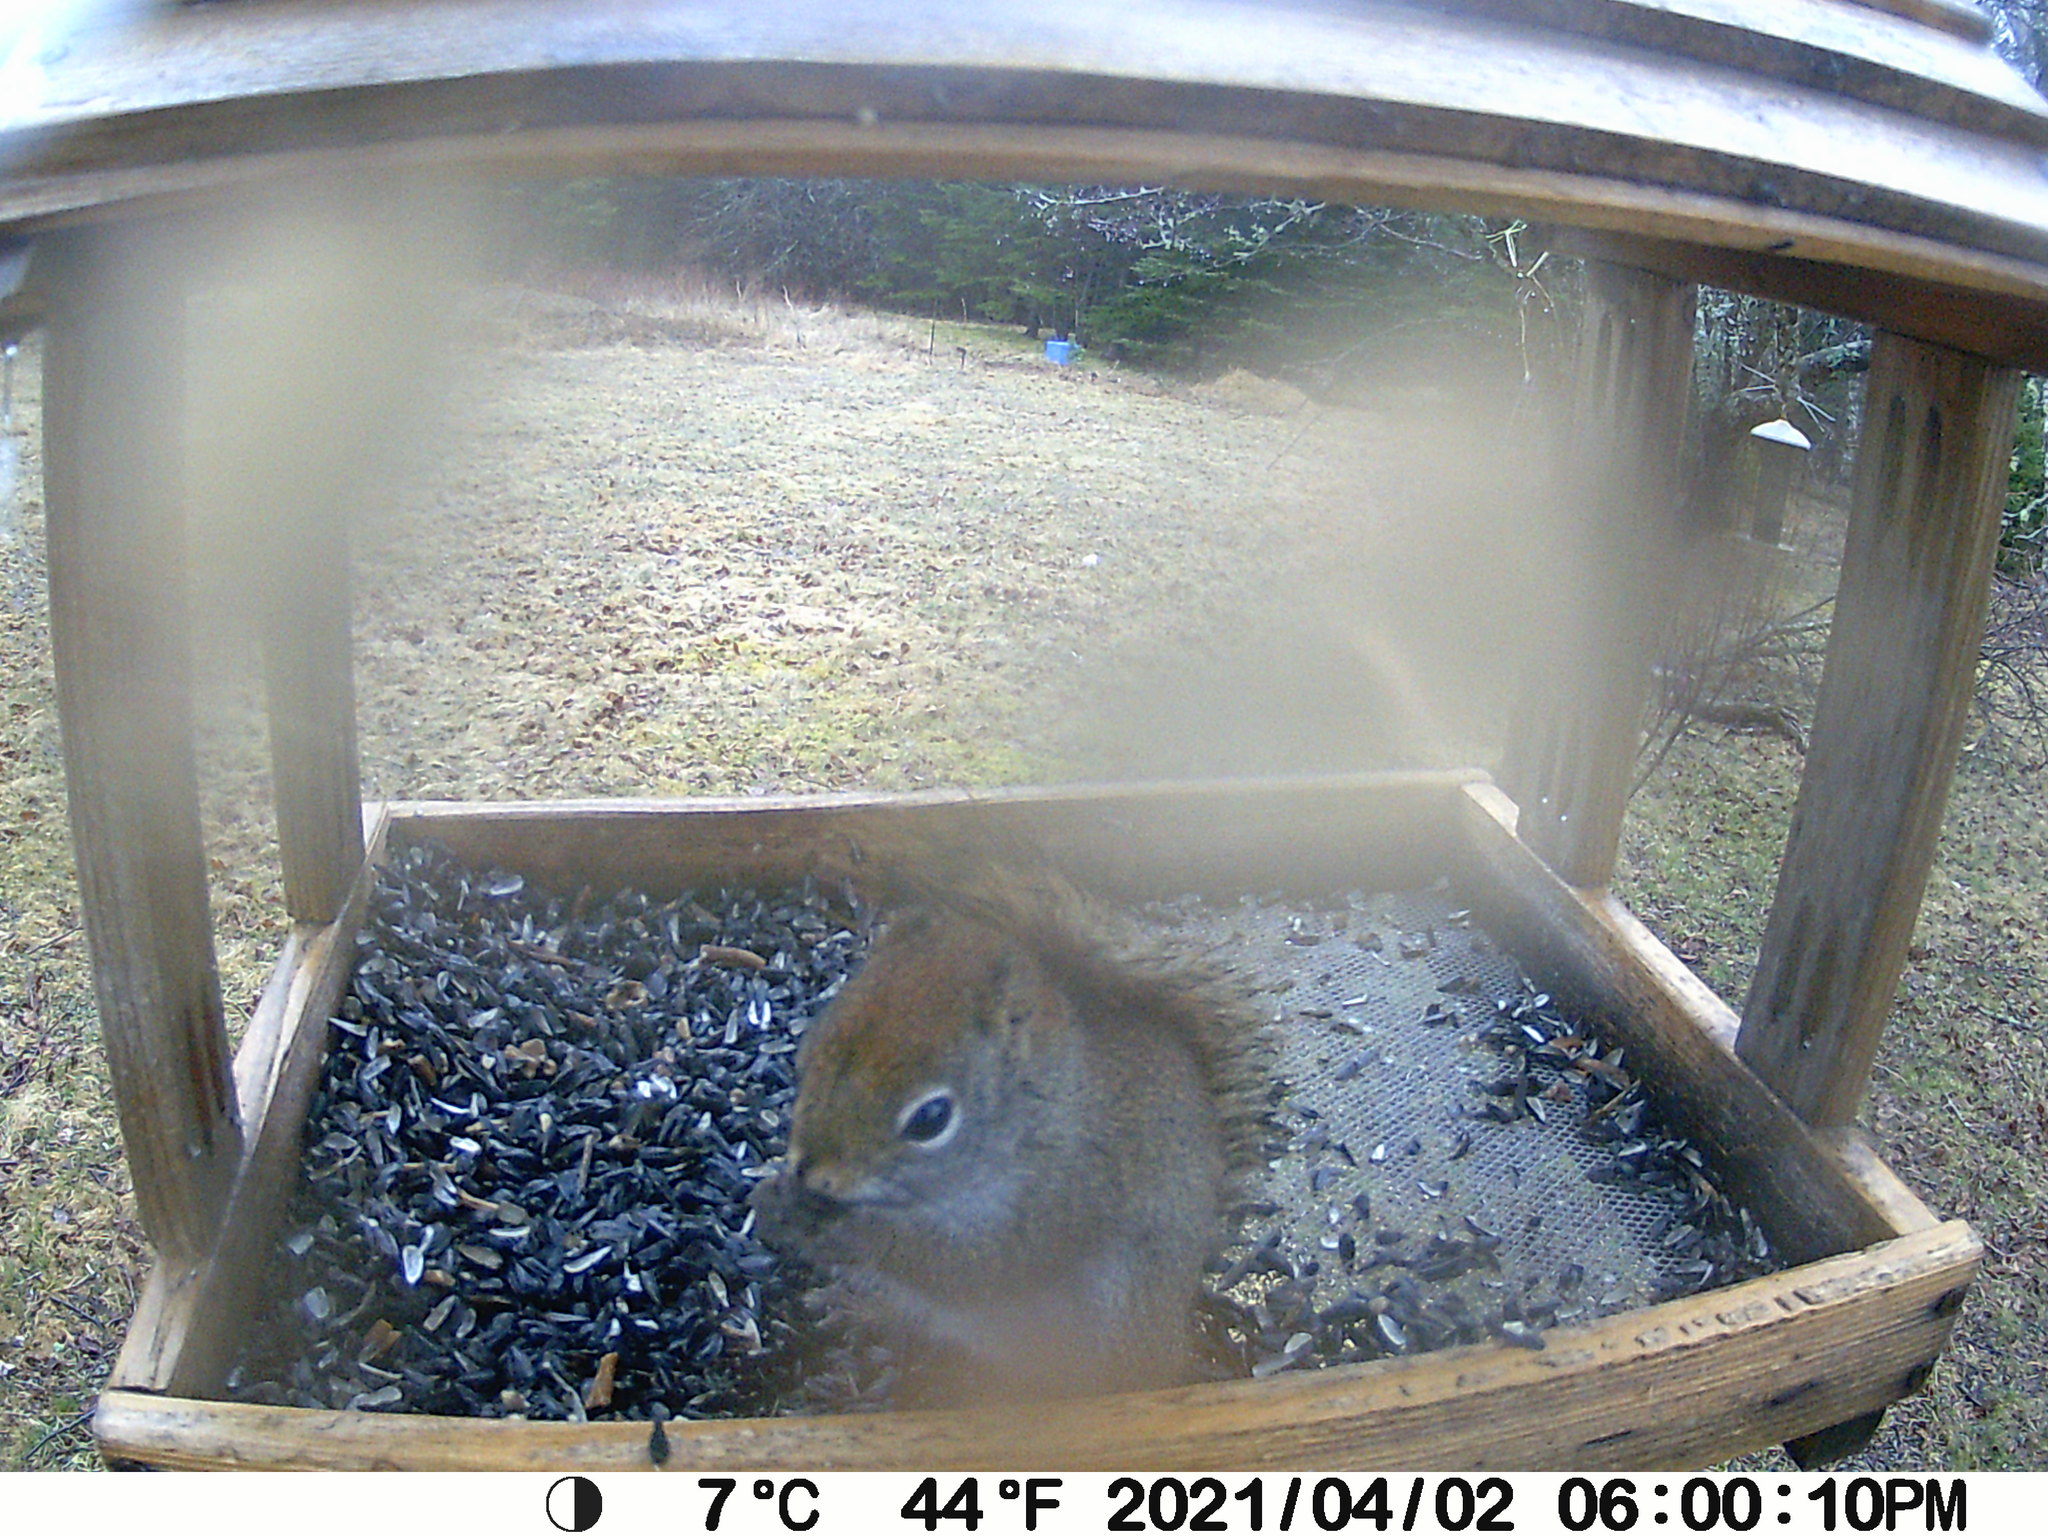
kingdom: Animalia
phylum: Chordata
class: Mammalia
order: Rodentia
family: Sciuridae
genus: Tamiasciurus
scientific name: Tamiasciurus hudsonicus
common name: Red squirrel
